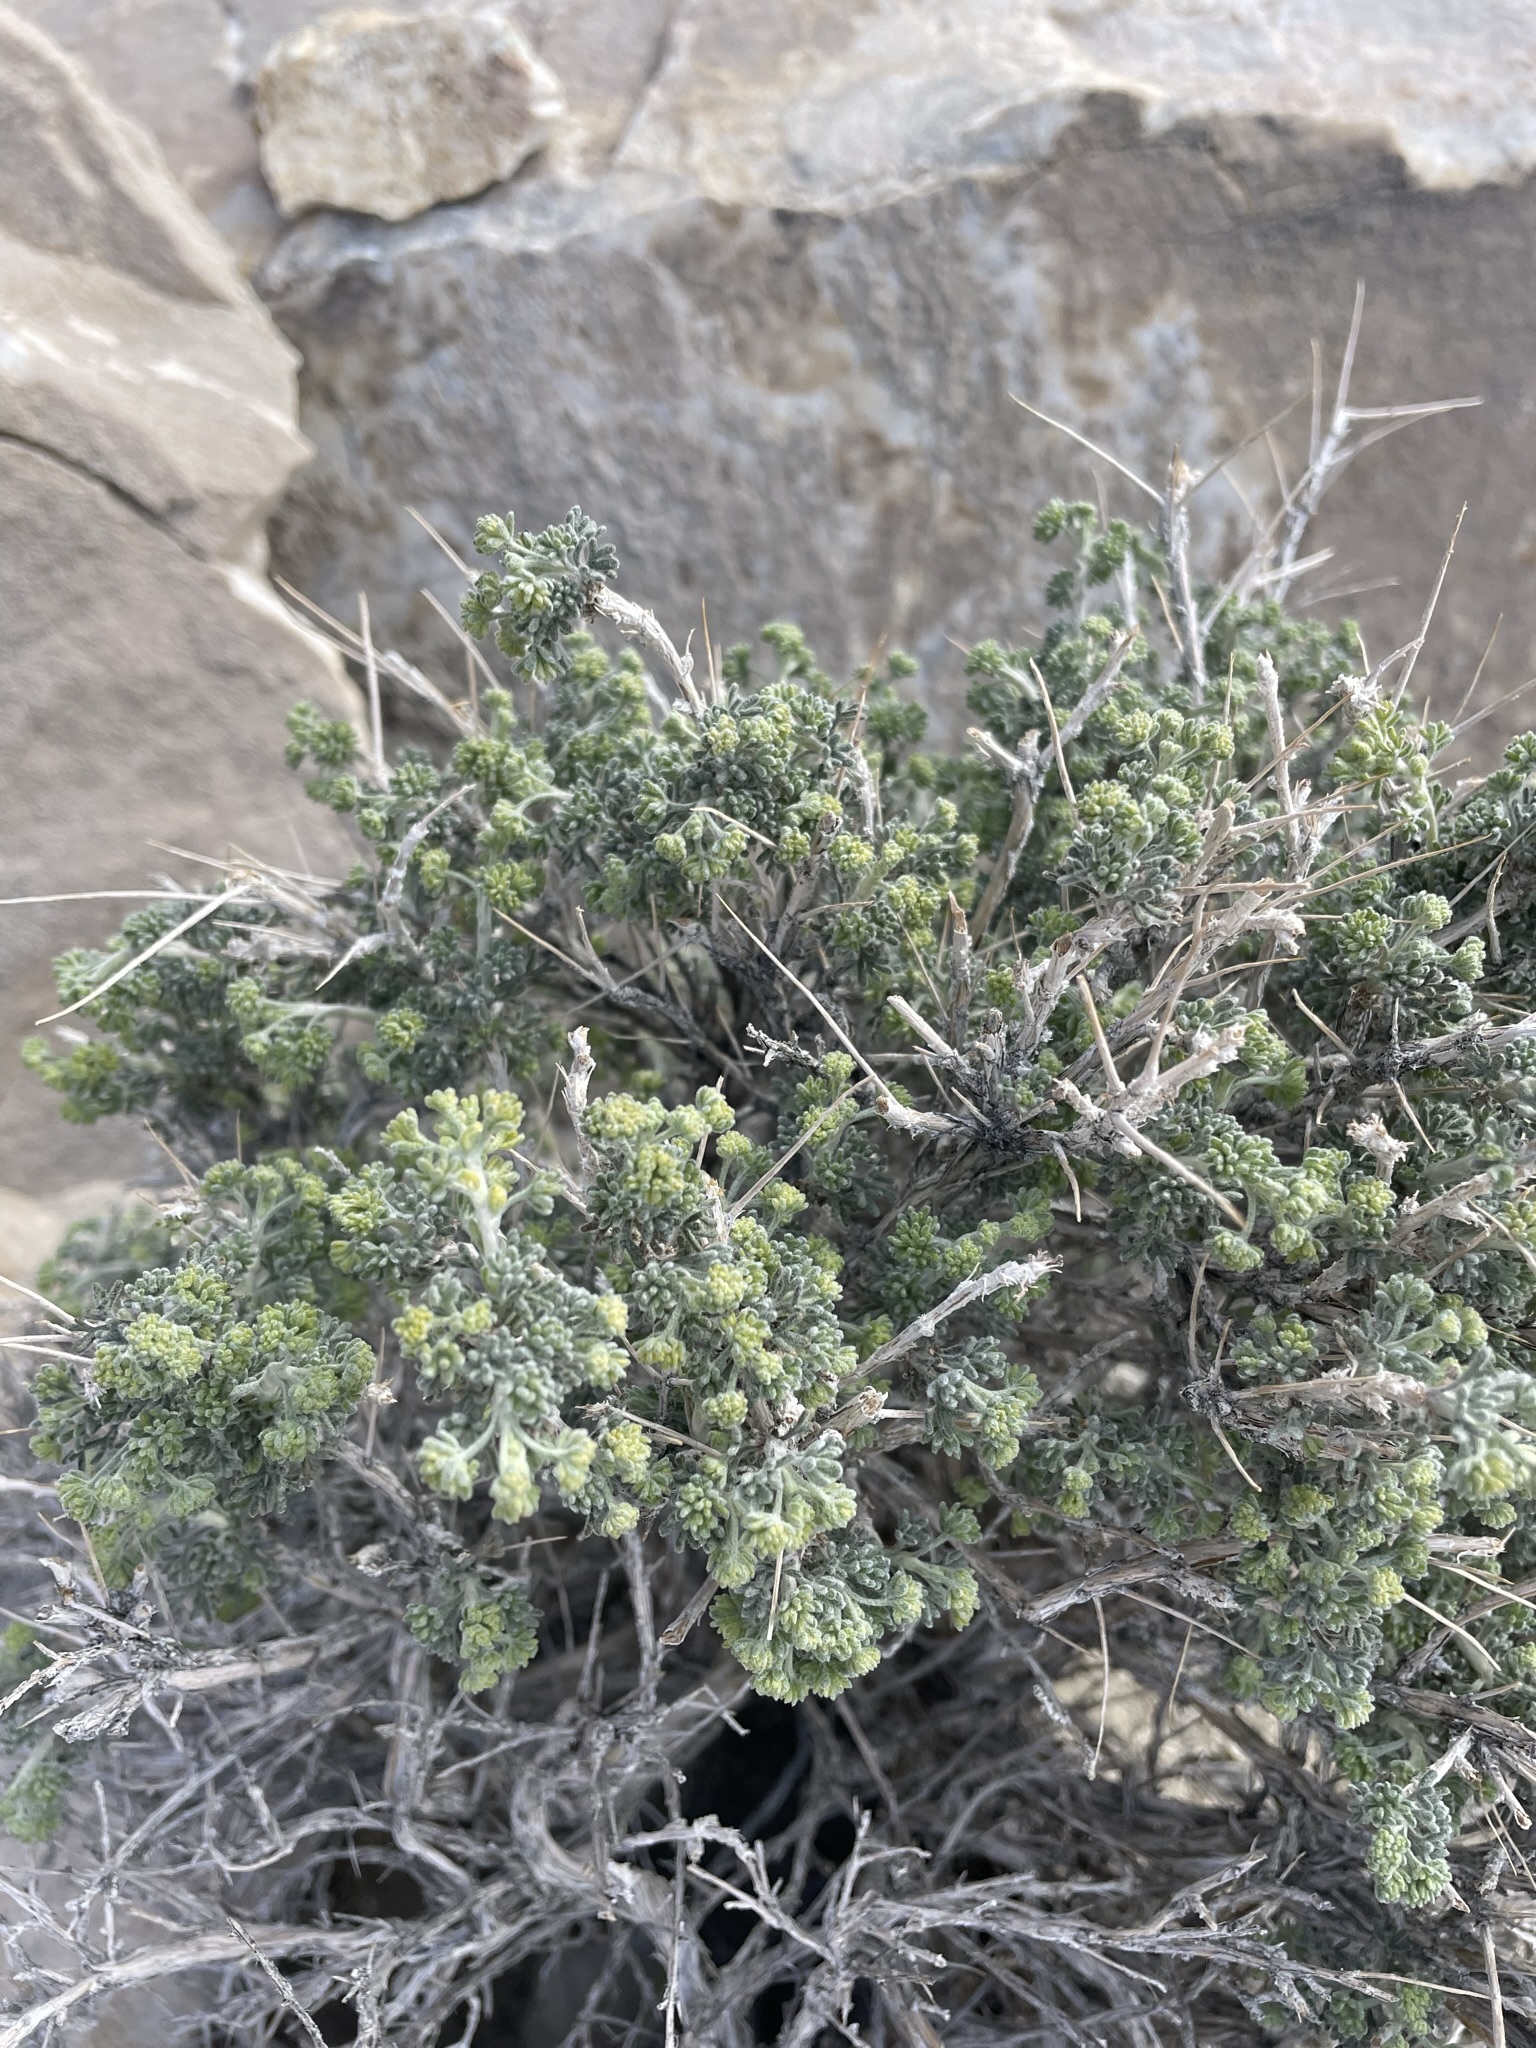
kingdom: Plantae
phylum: Tracheophyta
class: Magnoliopsida
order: Asterales
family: Asteraceae
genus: Artemisia
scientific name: Artemisia spinescens
